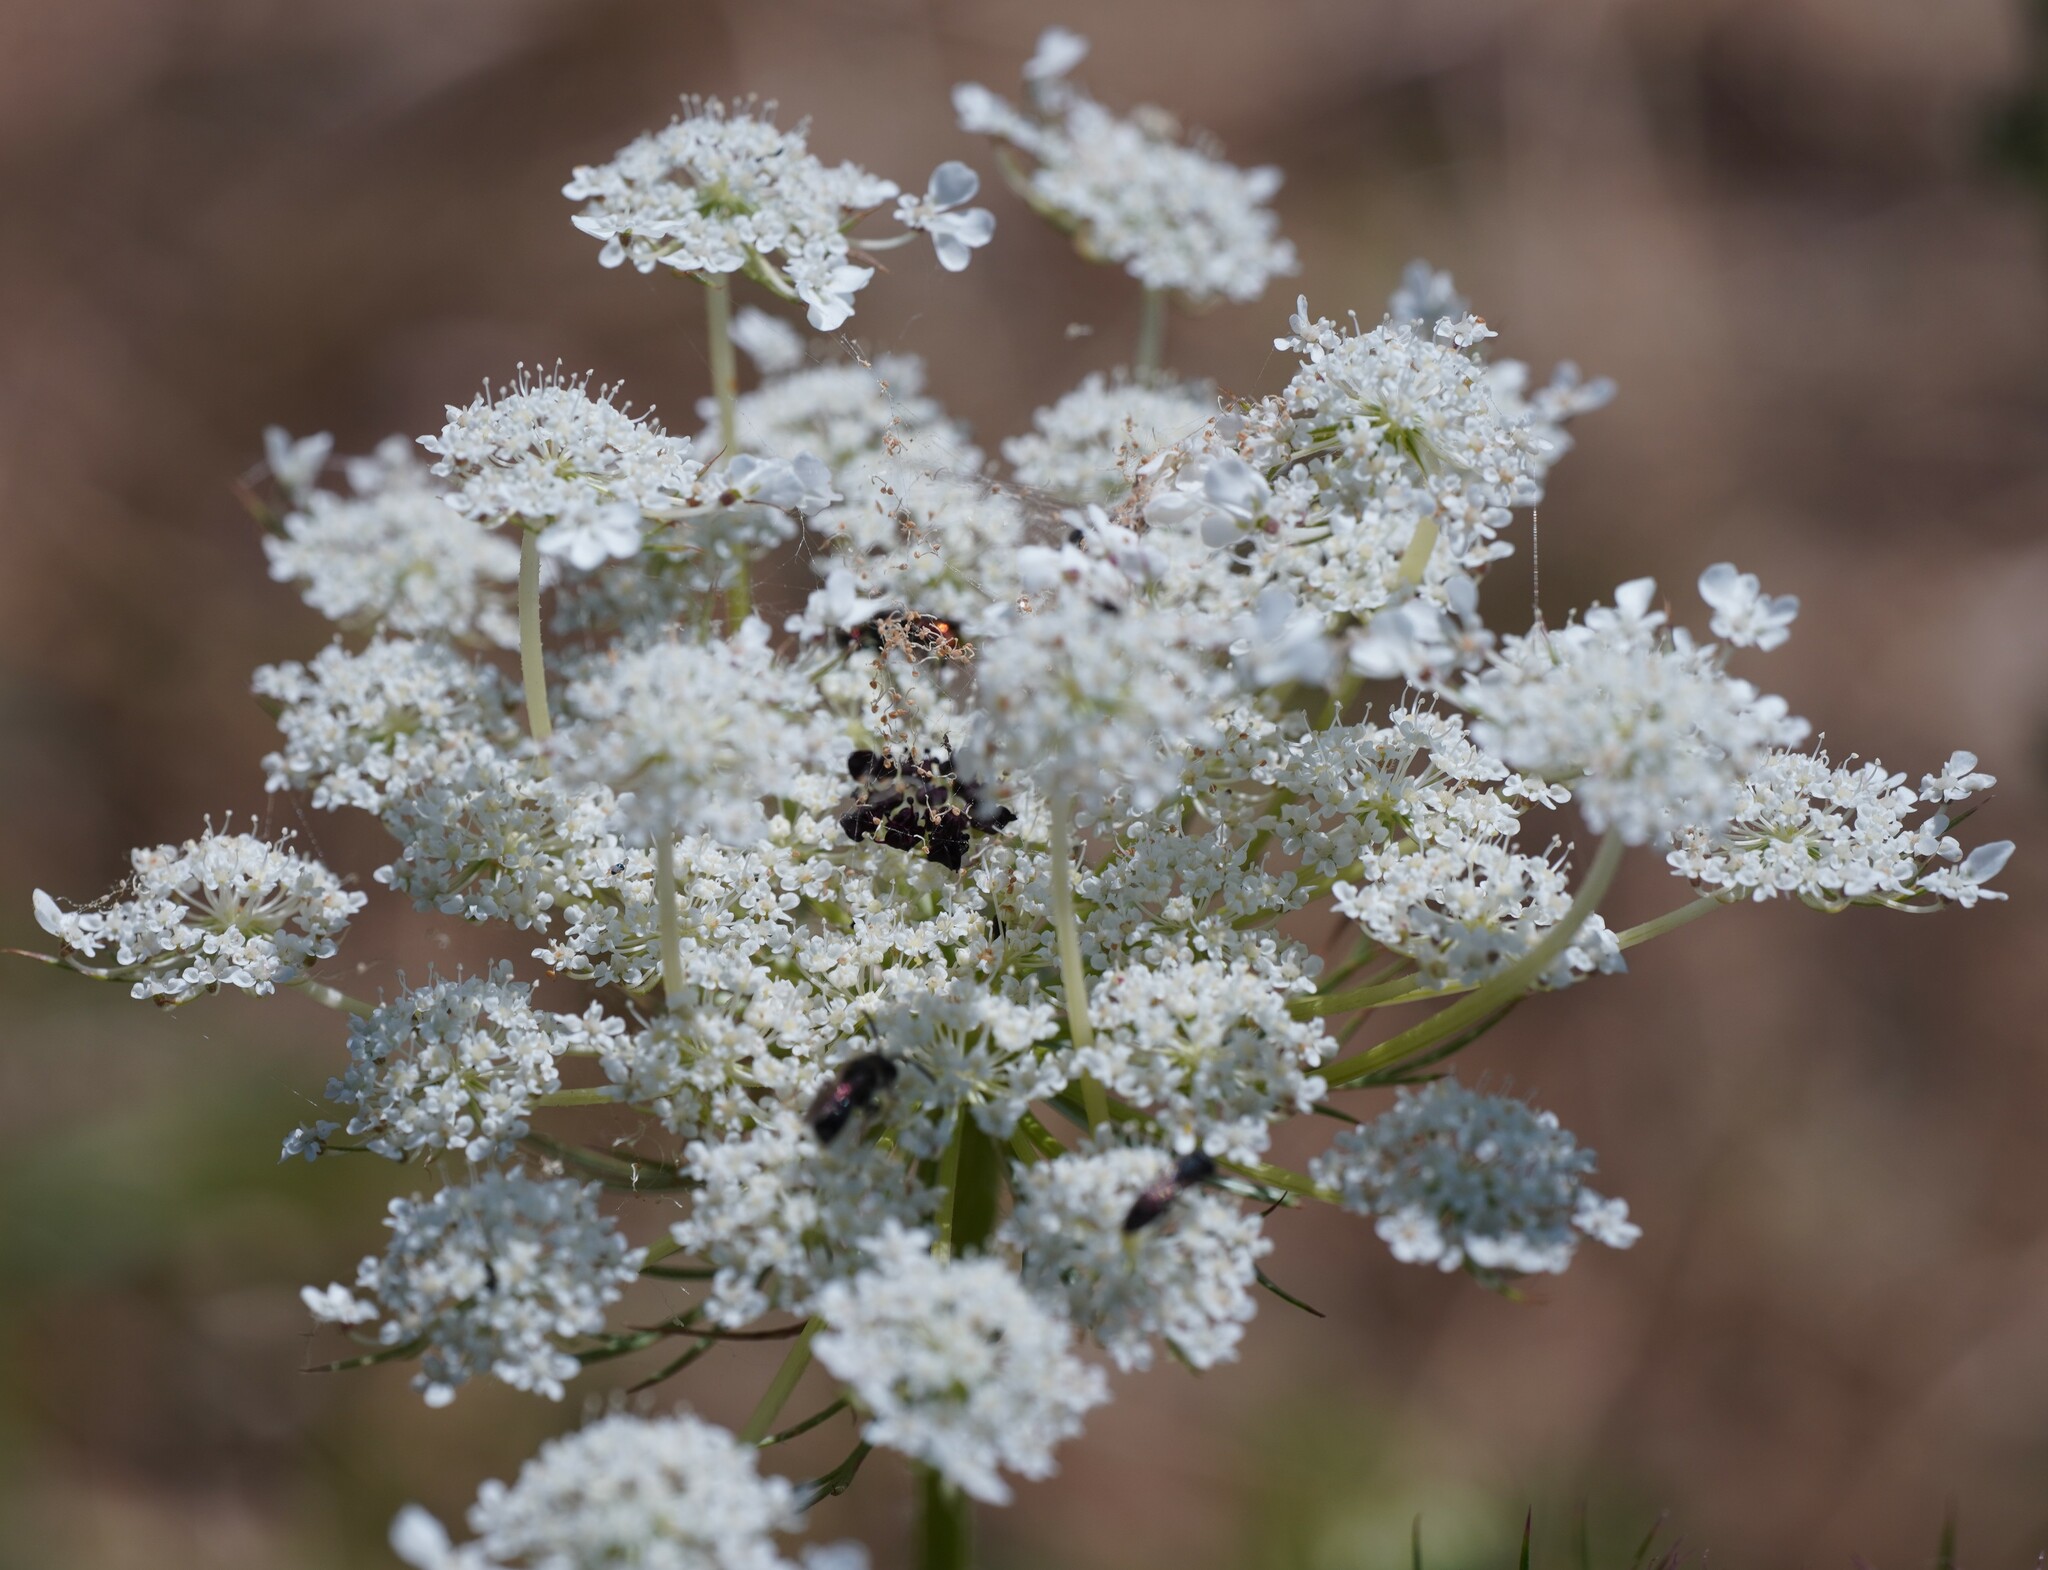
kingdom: Plantae
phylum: Tracheophyta
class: Magnoliopsida
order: Apiales
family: Apiaceae
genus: Daucus
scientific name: Daucus carota
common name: Wild carrot
